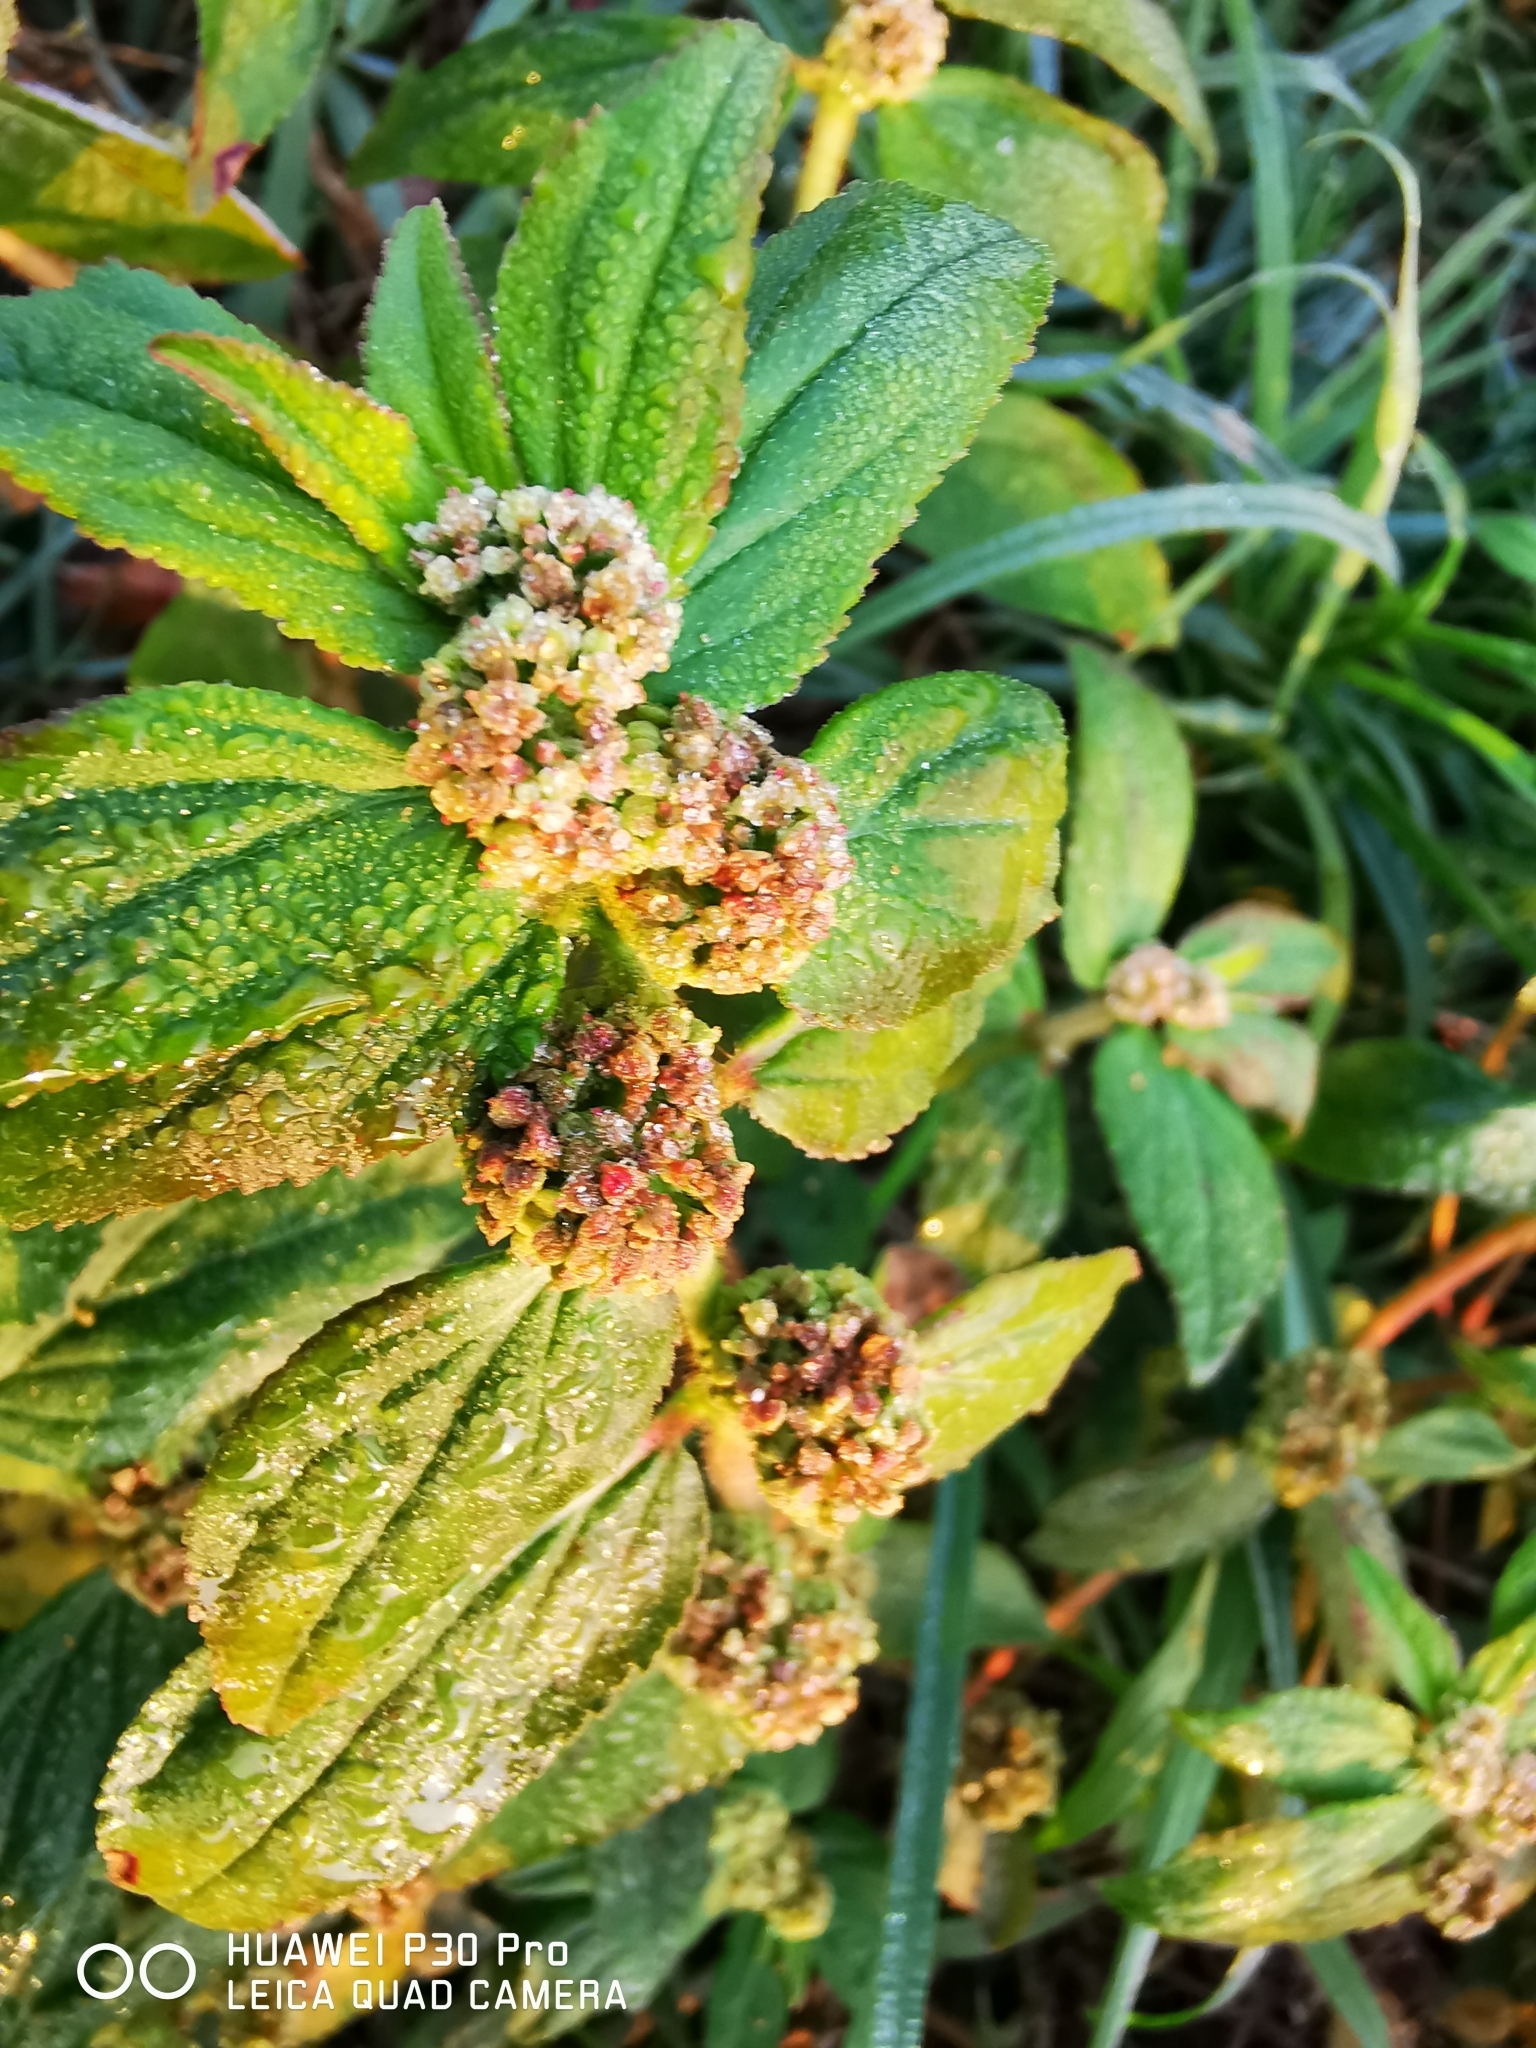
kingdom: Plantae
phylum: Tracheophyta
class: Magnoliopsida
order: Malpighiales
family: Euphorbiaceae
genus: Euphorbia
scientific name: Euphorbia hirta
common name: Pillpod sandmat
